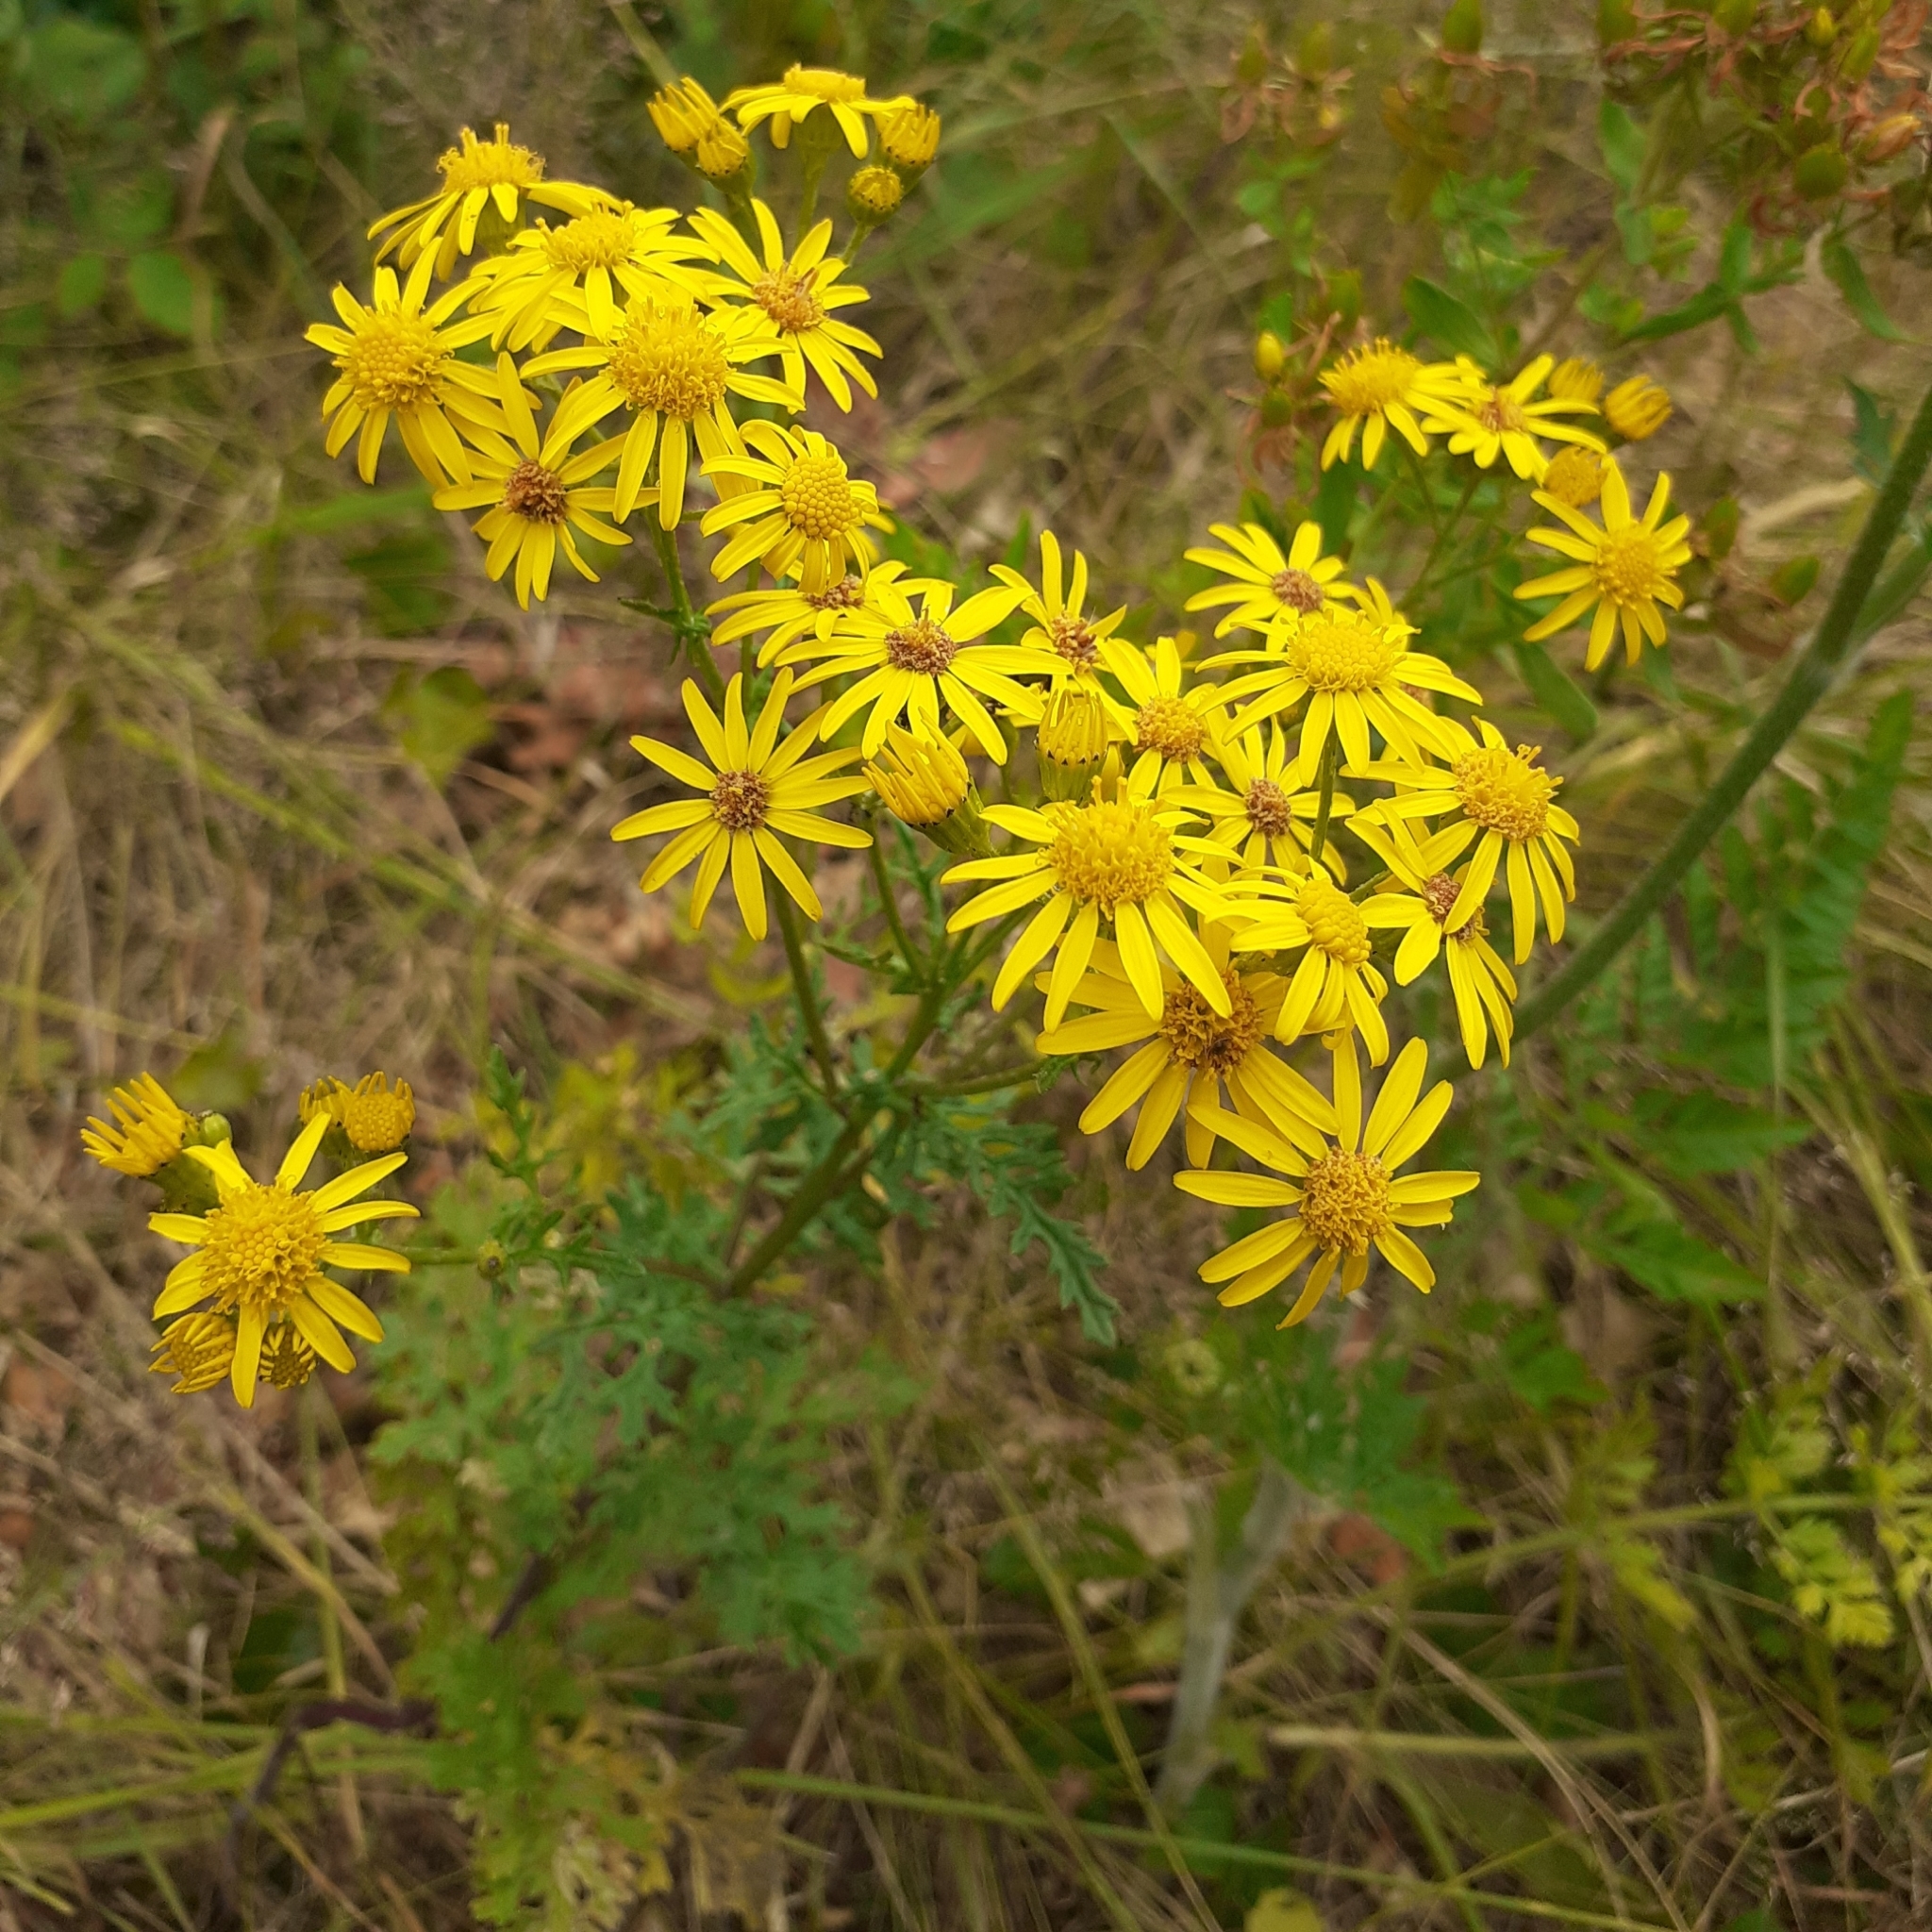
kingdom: Plantae
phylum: Tracheophyta
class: Magnoliopsida
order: Asterales
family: Asteraceae
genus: Jacobaea
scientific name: Jacobaea vulgaris
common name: Stinking willie
